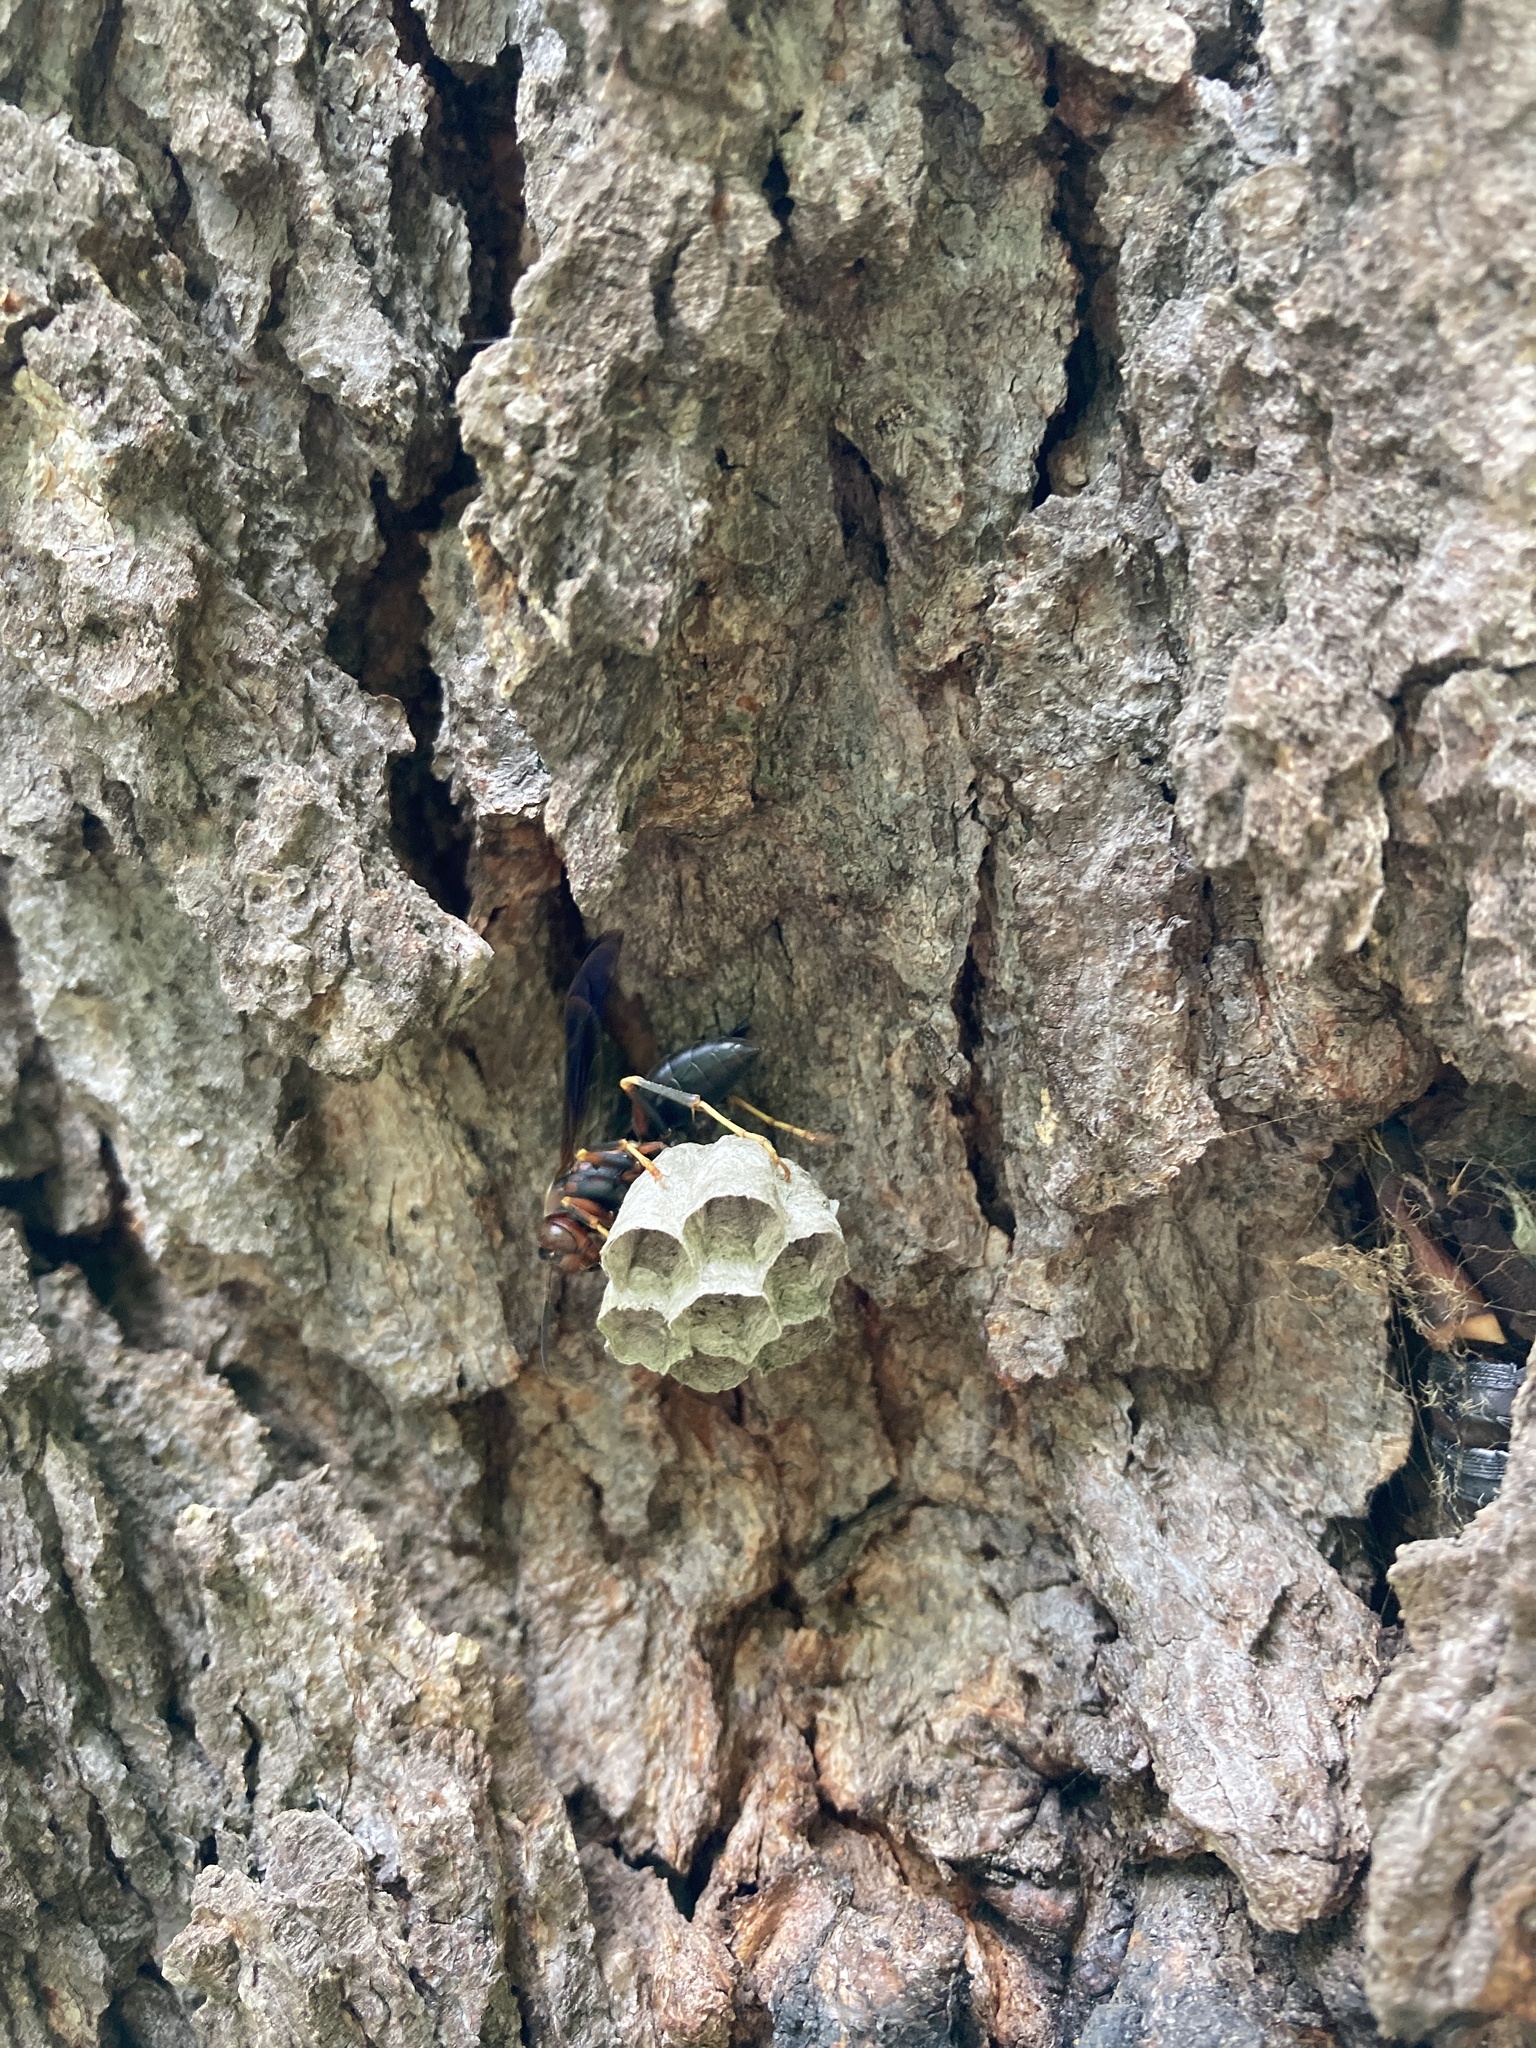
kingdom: Animalia
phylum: Arthropoda
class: Insecta
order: Hymenoptera
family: Eumenidae
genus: Polistes
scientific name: Polistes metricus
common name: Metric paper wasp
